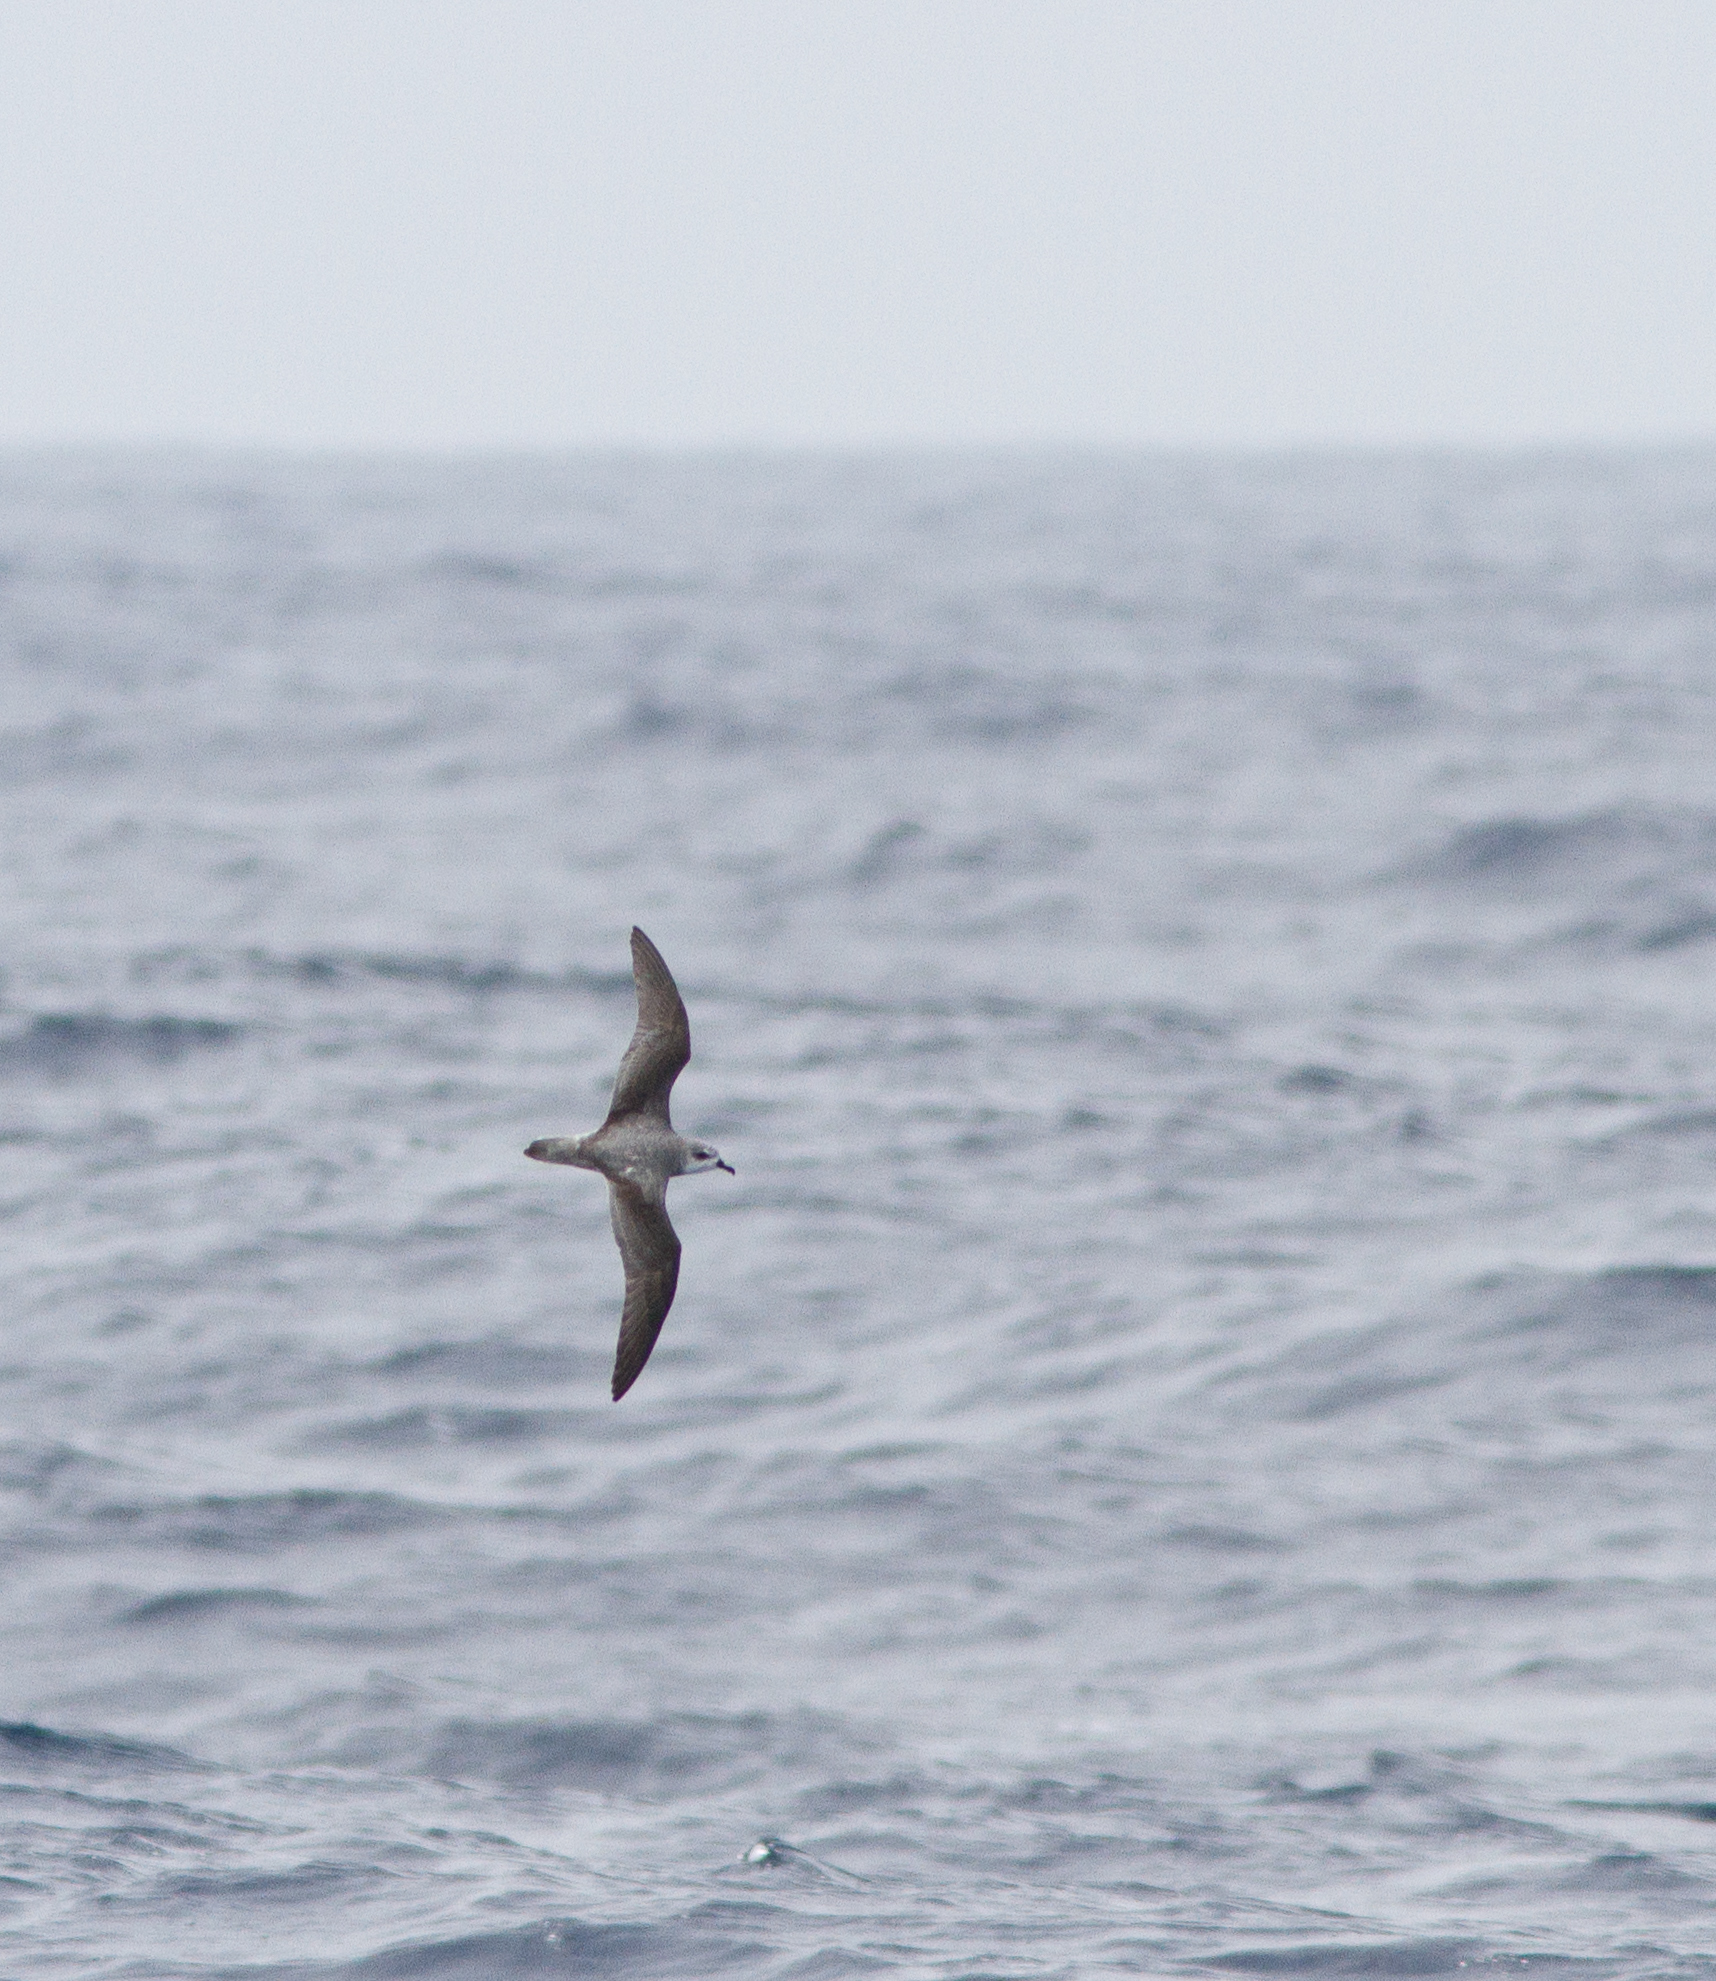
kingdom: Animalia
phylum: Chordata
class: Aves
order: Procellariiformes
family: Procellariidae
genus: Pterodroma
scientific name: Pterodroma cookii
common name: Cook's petrel
